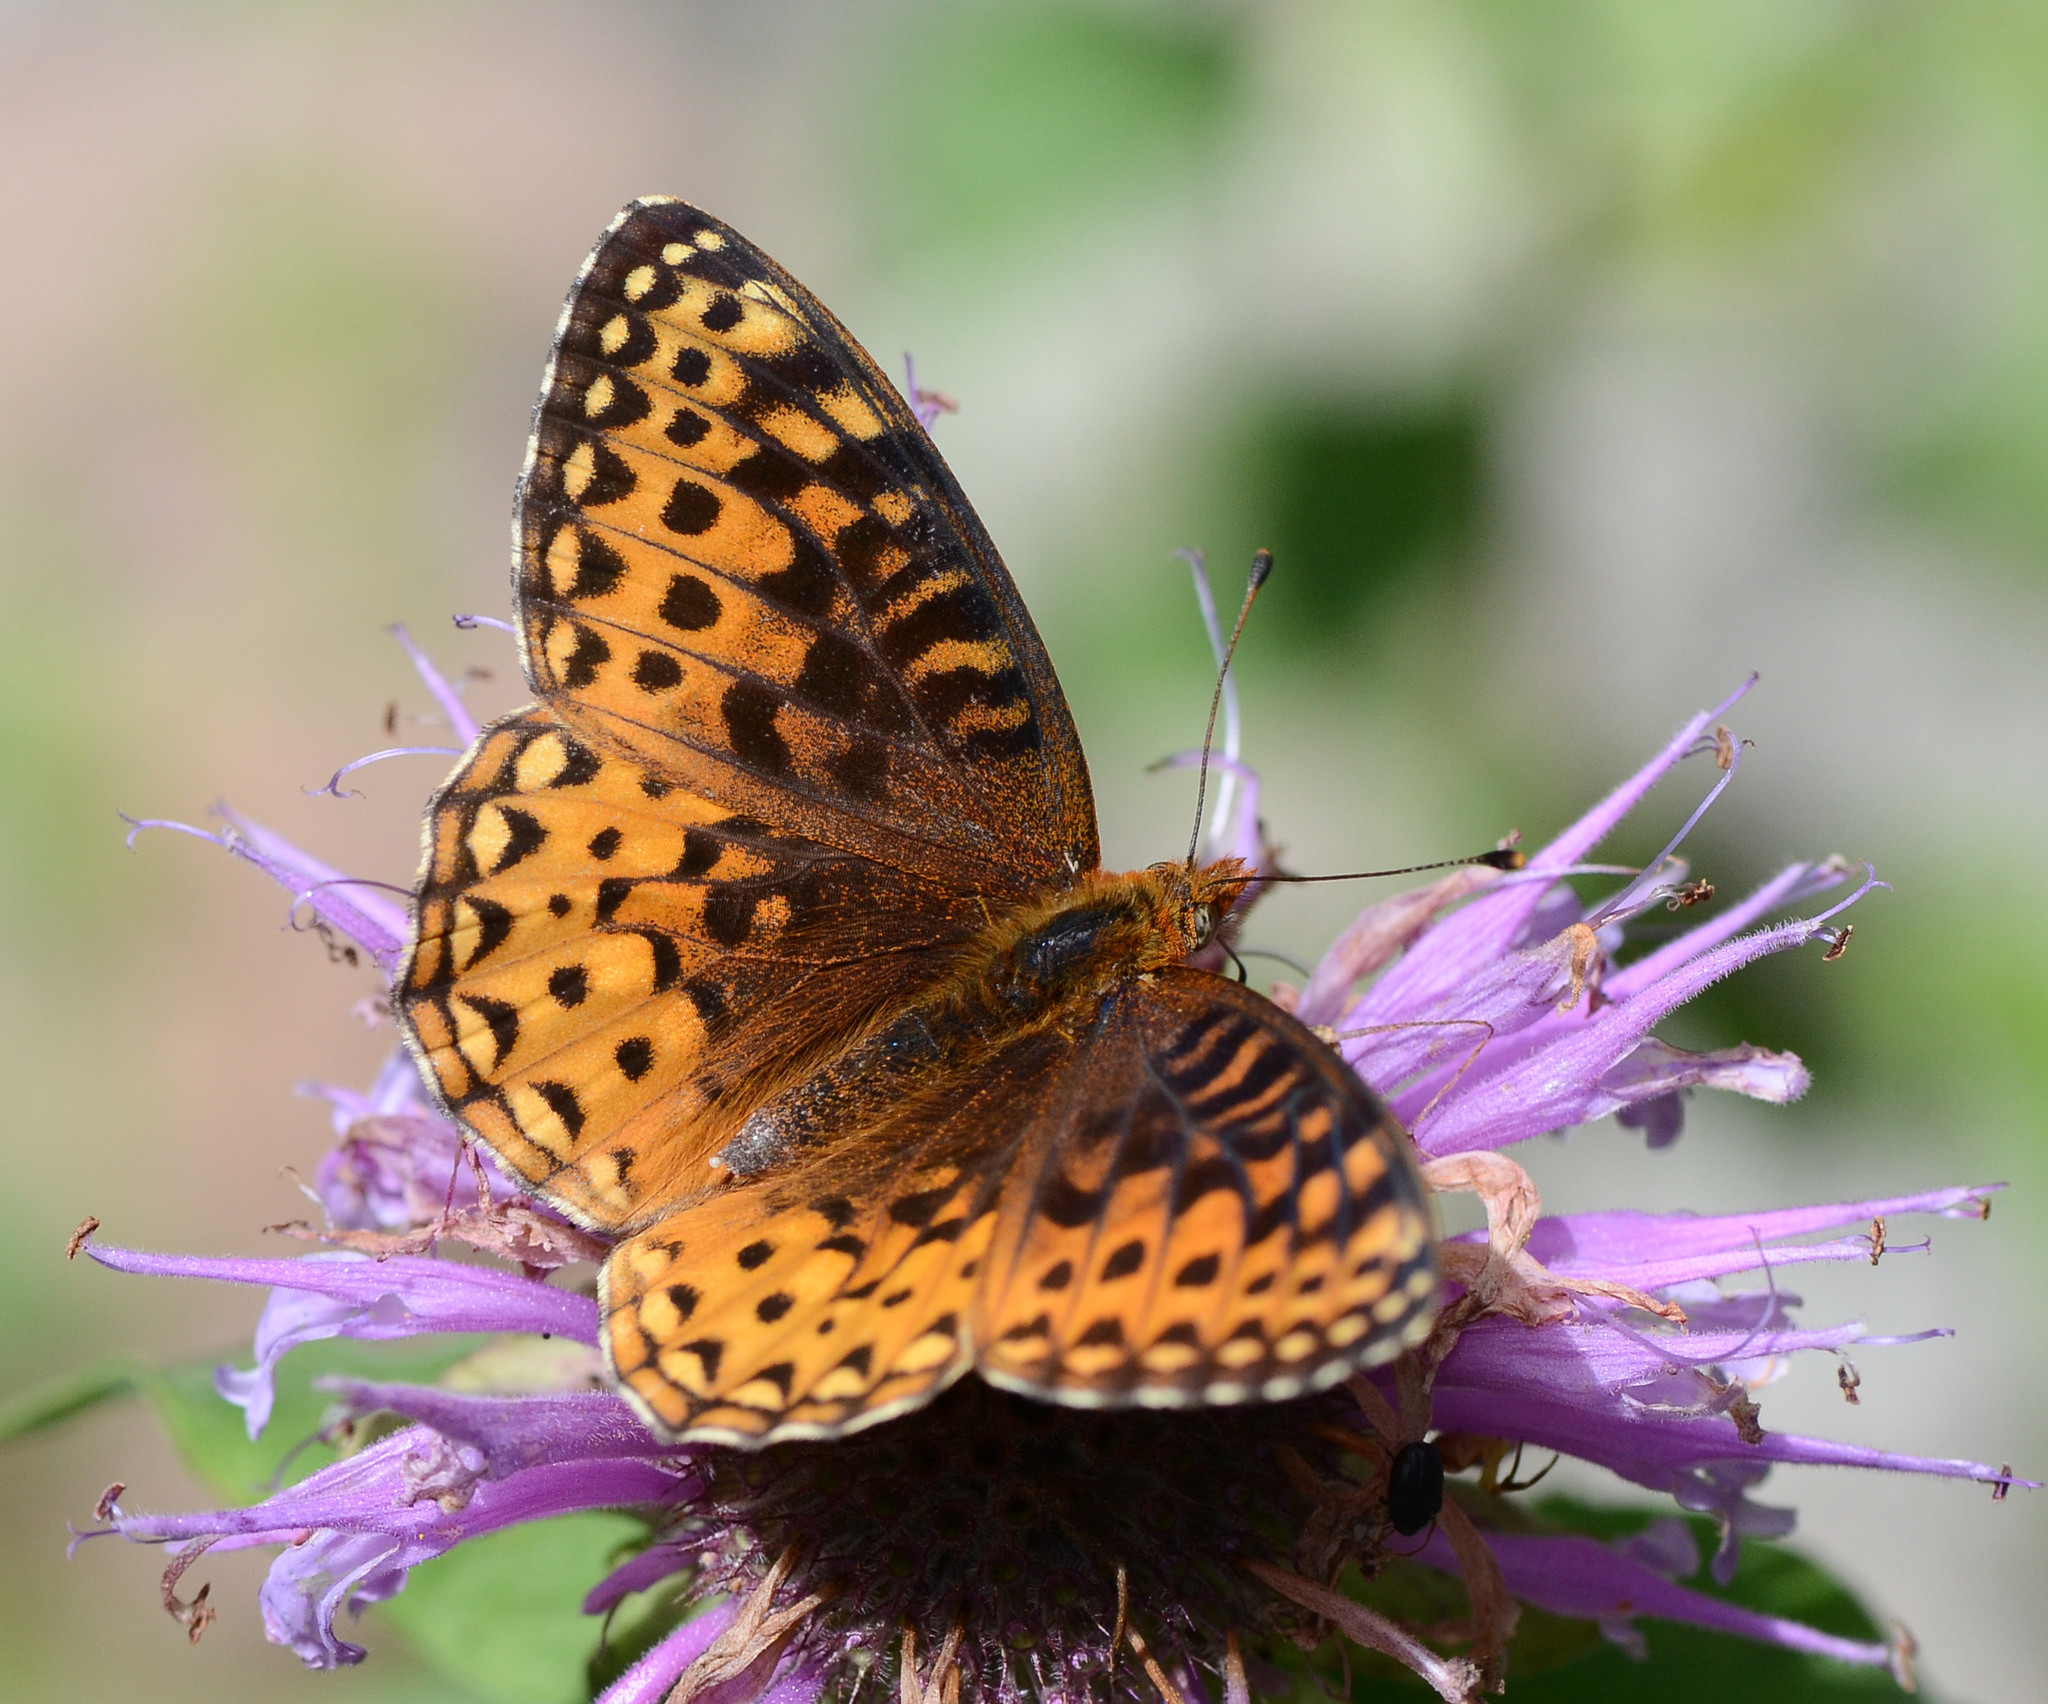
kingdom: Animalia
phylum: Arthropoda
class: Insecta
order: Lepidoptera
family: Nymphalidae
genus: Speyeria
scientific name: Speyeria atlantis
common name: Atlantis fritillary
